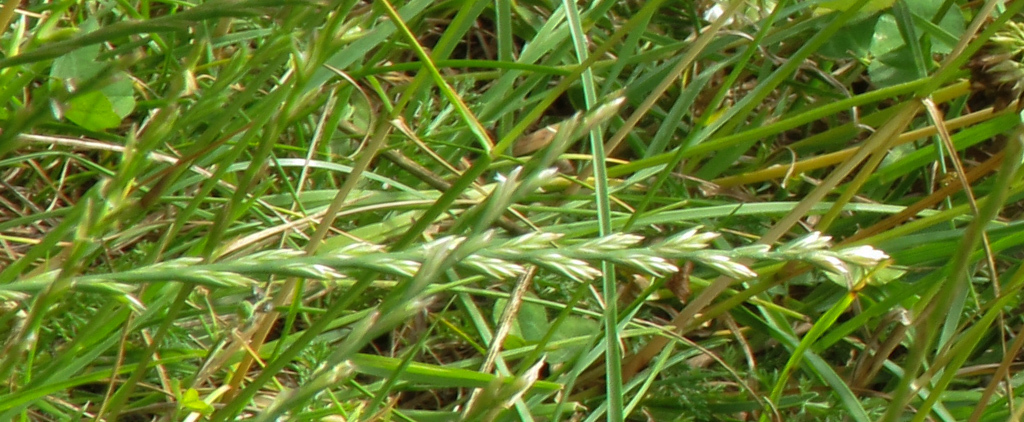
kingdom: Plantae
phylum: Tracheophyta
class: Liliopsida
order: Poales
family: Poaceae
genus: Lolium
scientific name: Lolium perenne
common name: Perennial ryegrass
